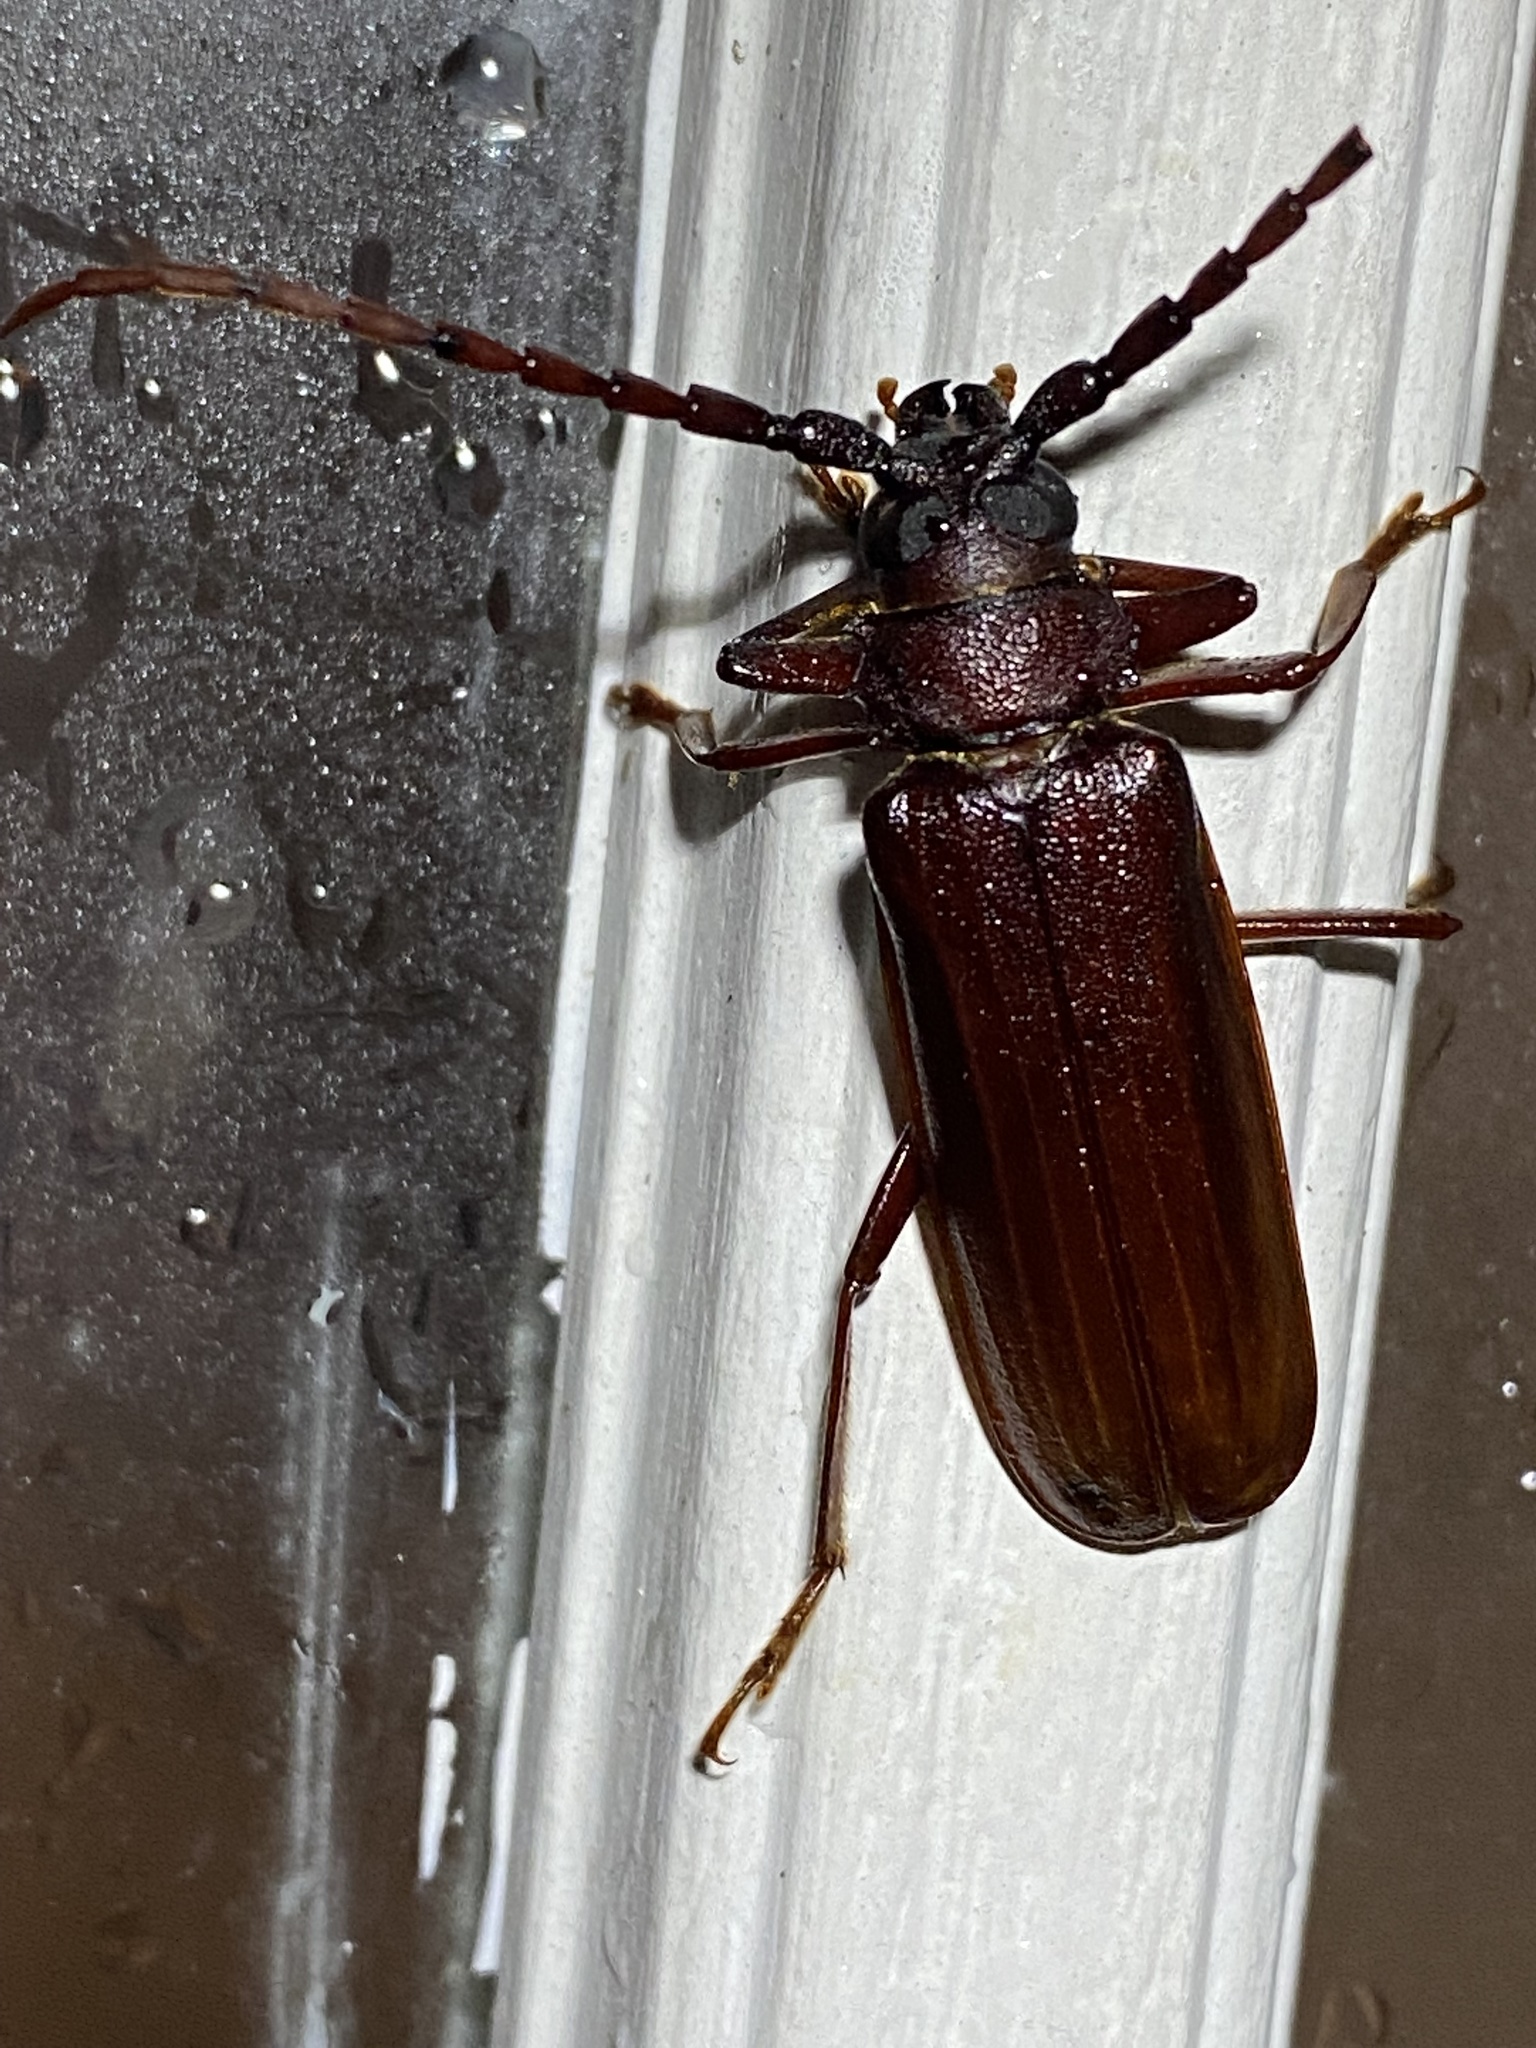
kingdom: Animalia
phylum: Arthropoda
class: Insecta
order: Coleoptera
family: Cerambycidae
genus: Orthosoma
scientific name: Orthosoma brunneum
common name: Brown prionid beetle
